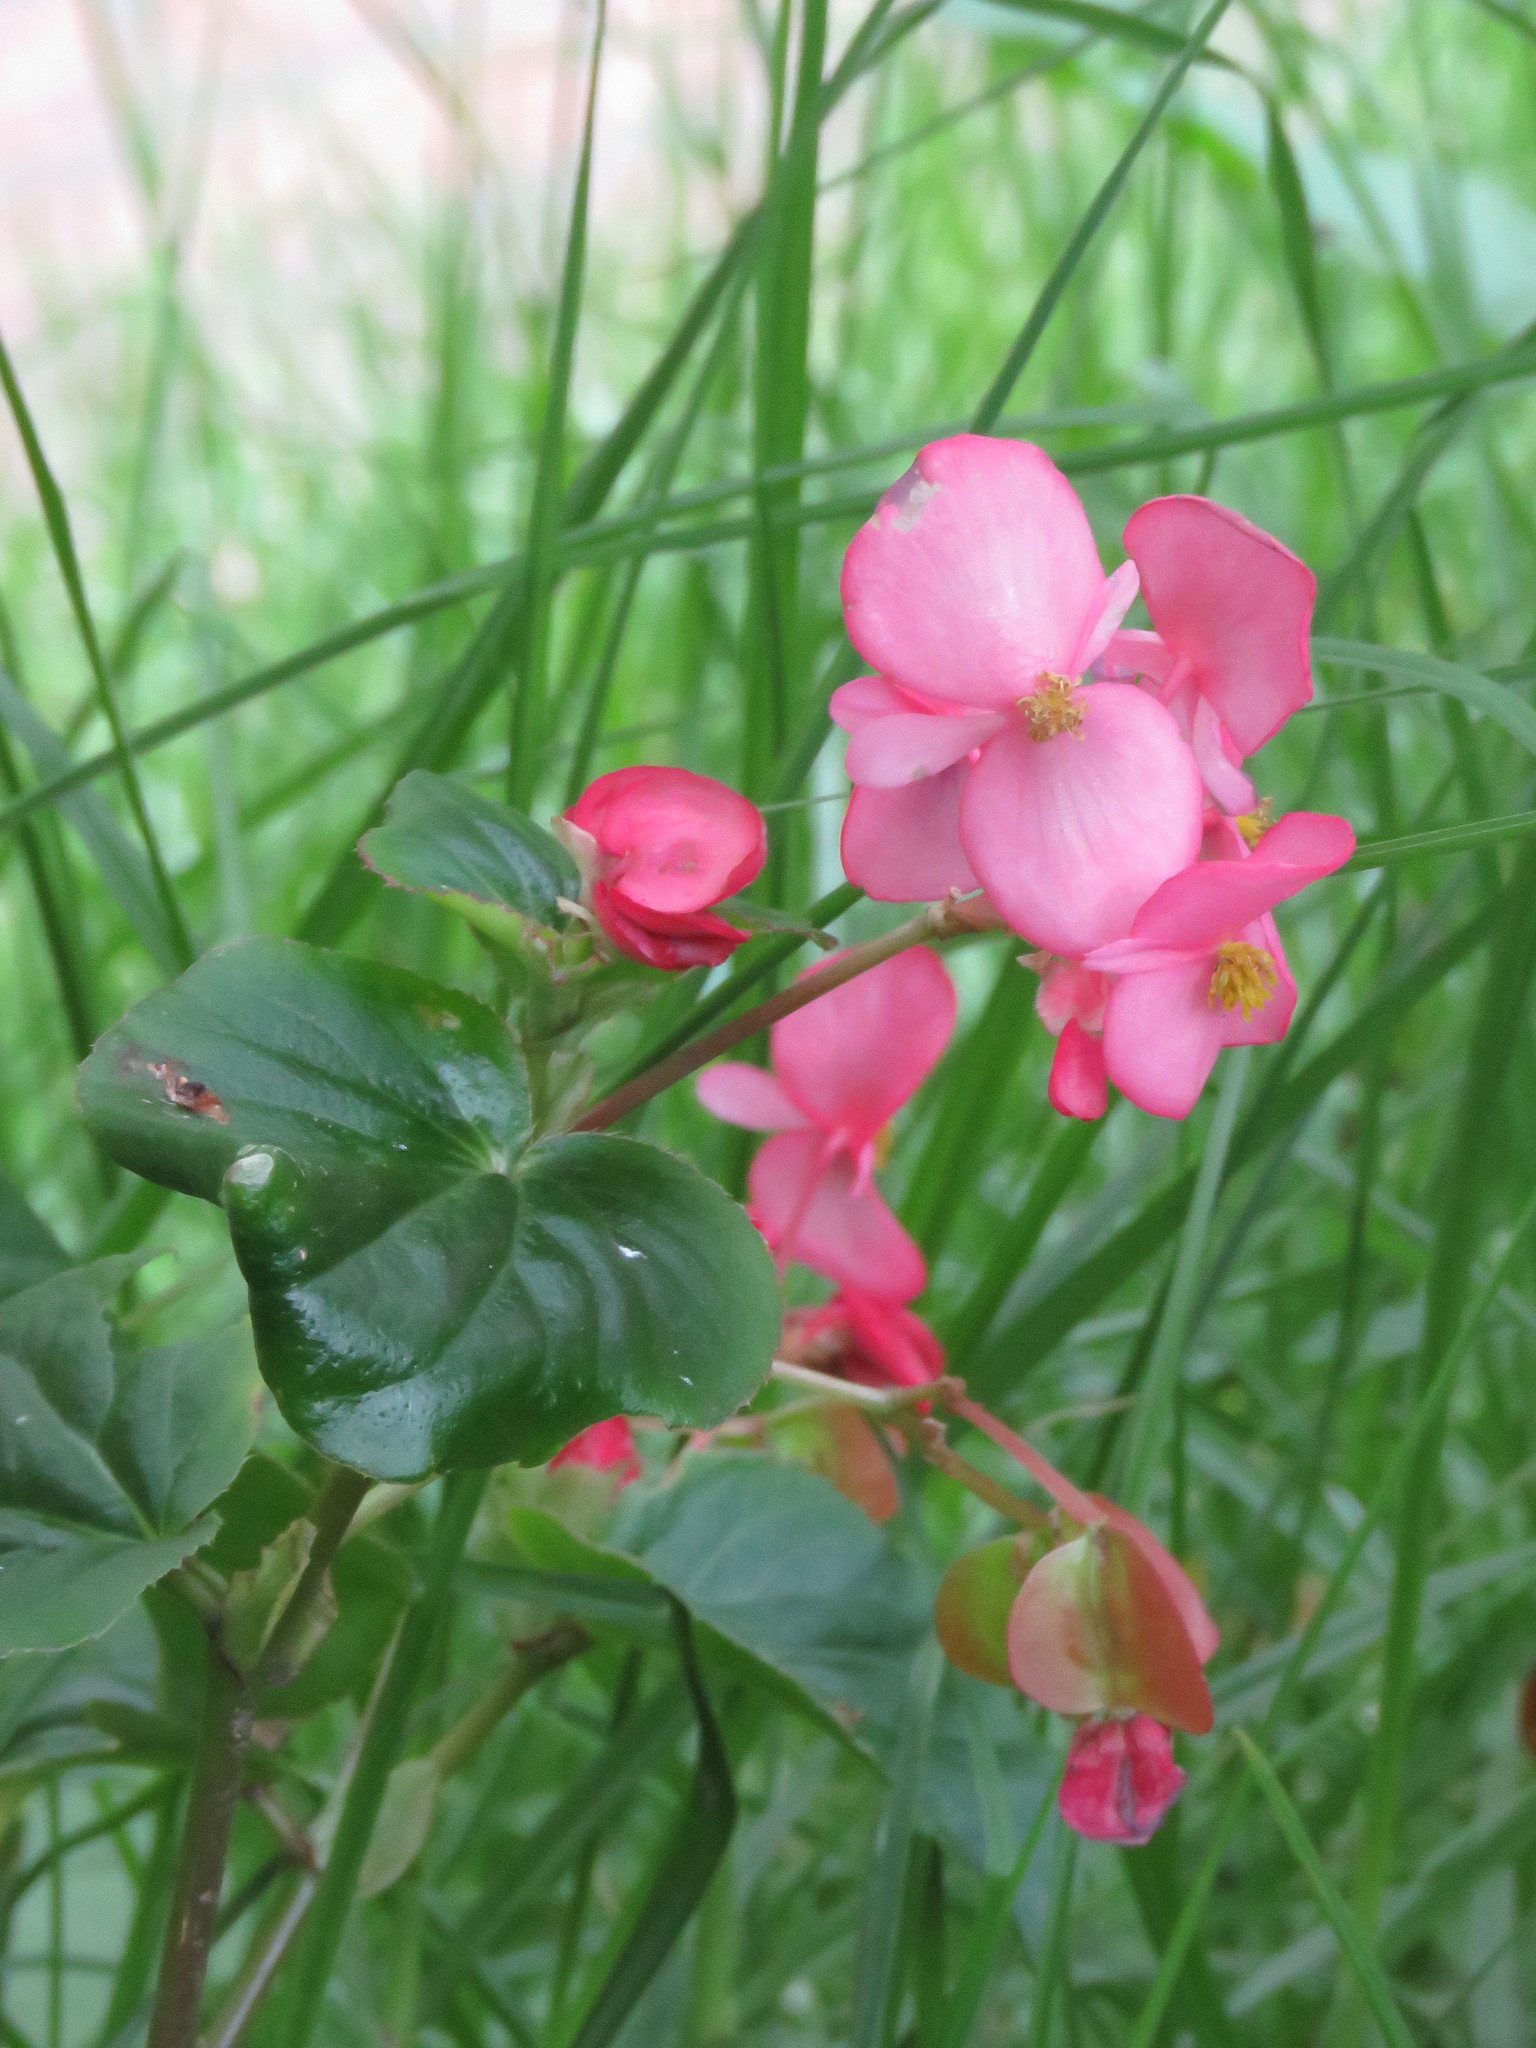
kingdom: Animalia
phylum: Arthropoda
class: Insecta
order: Hymenoptera
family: Apidae
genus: Thygater
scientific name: Thygater aethiops
